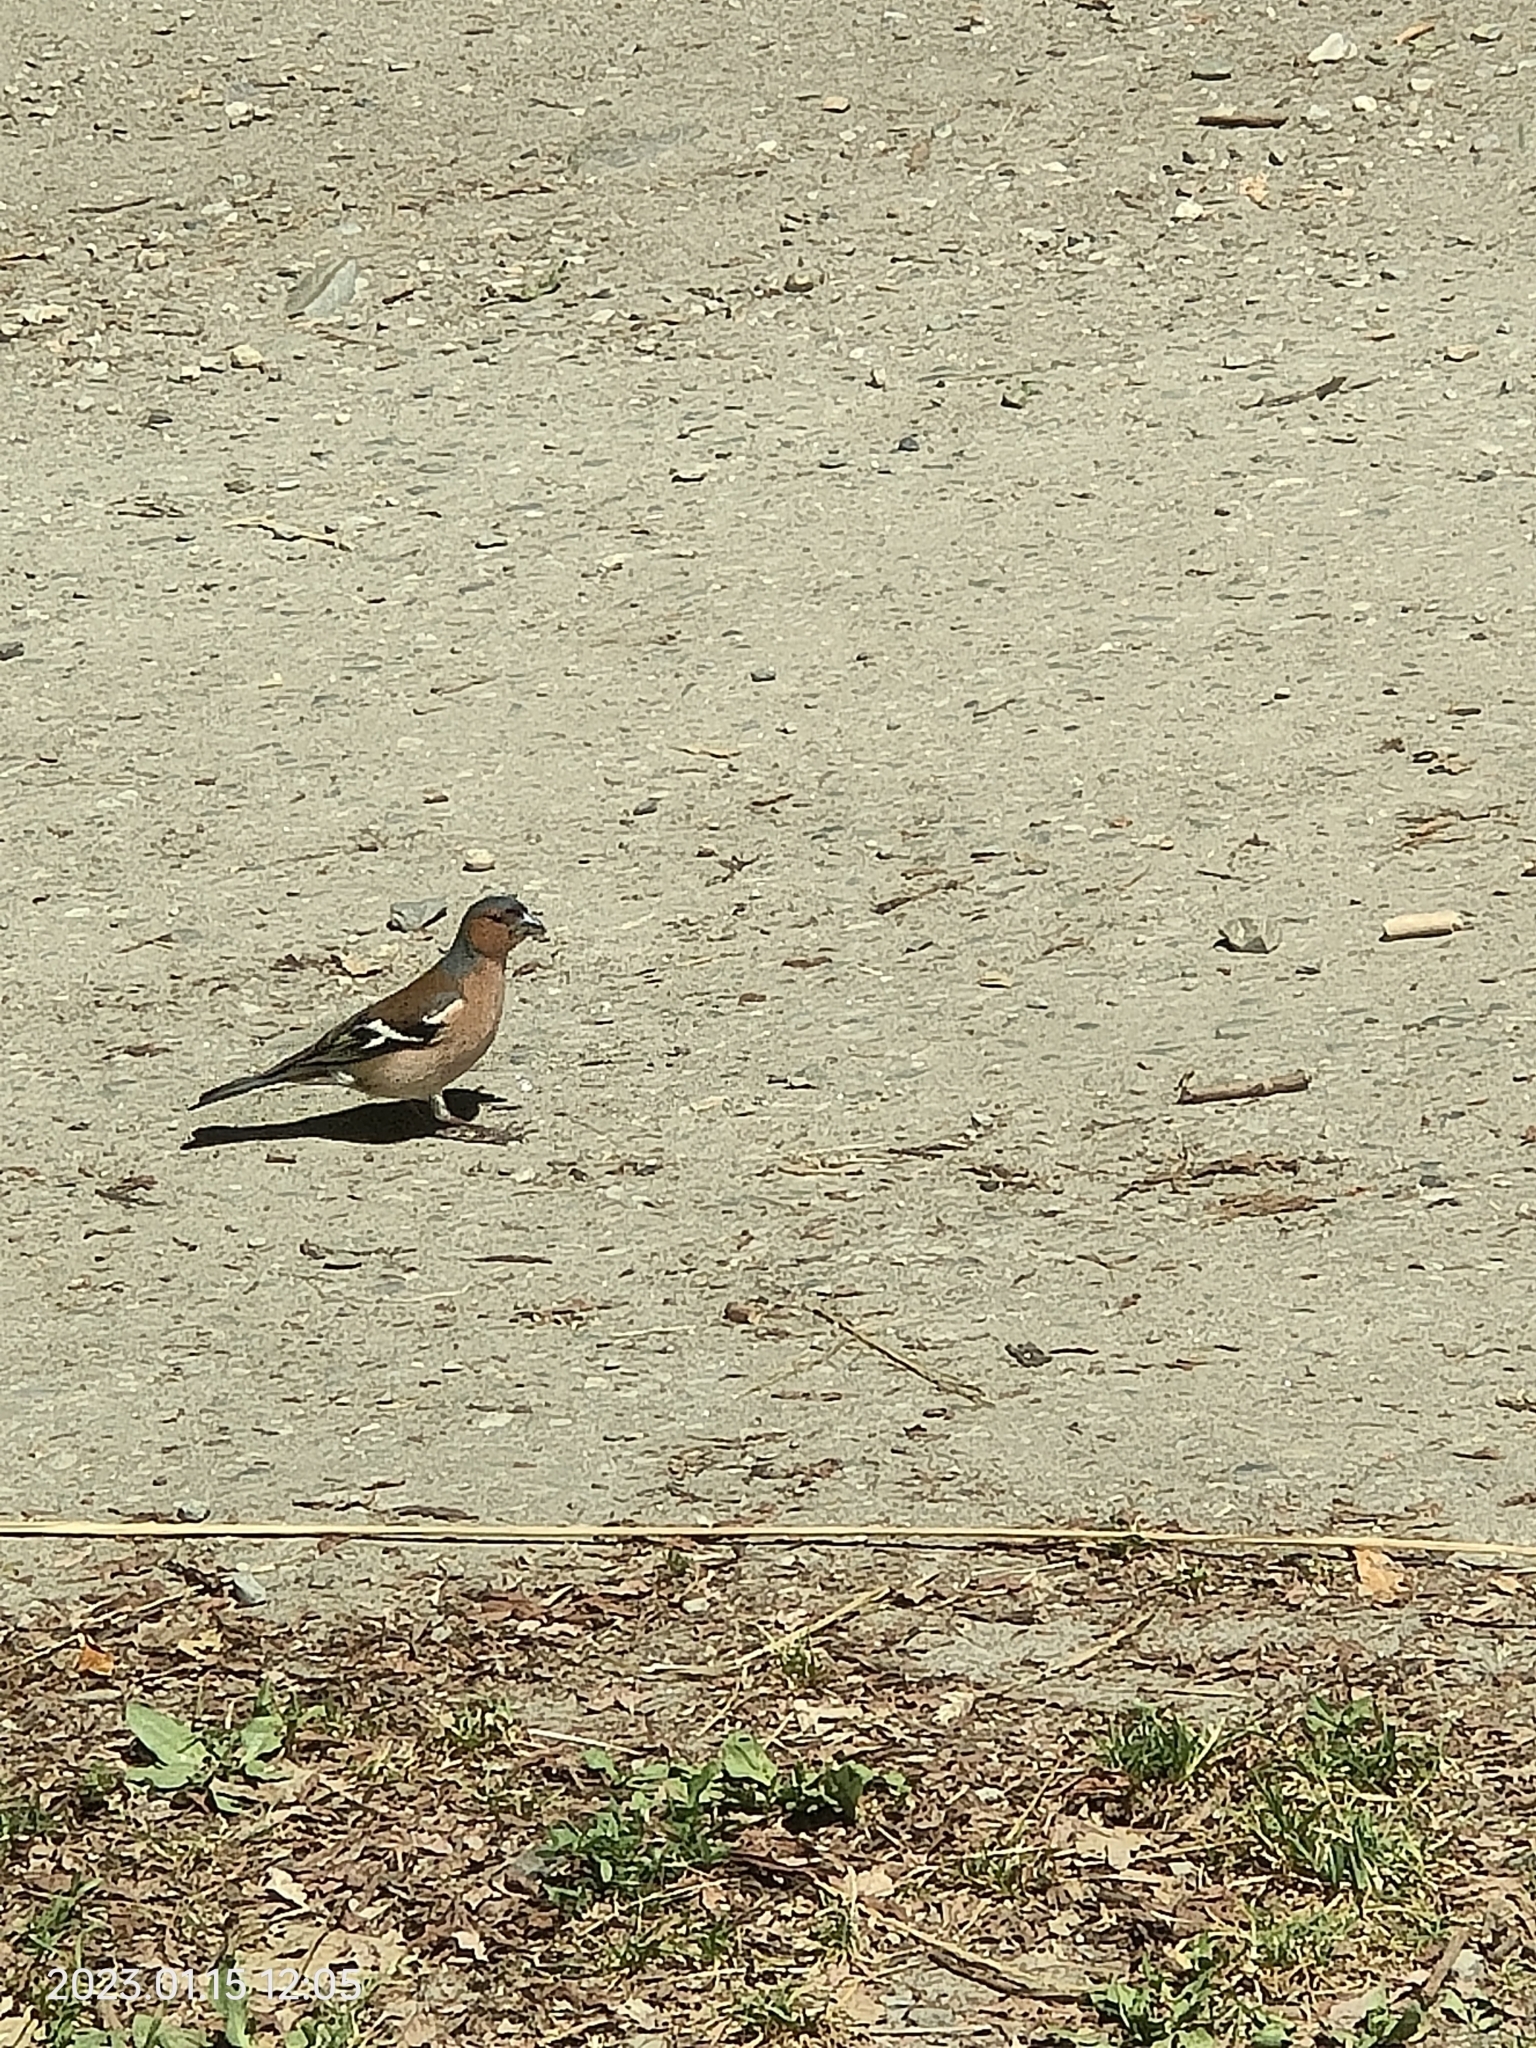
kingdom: Animalia
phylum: Chordata
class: Aves
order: Passeriformes
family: Fringillidae
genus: Fringilla
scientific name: Fringilla coelebs
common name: Common chaffinch
